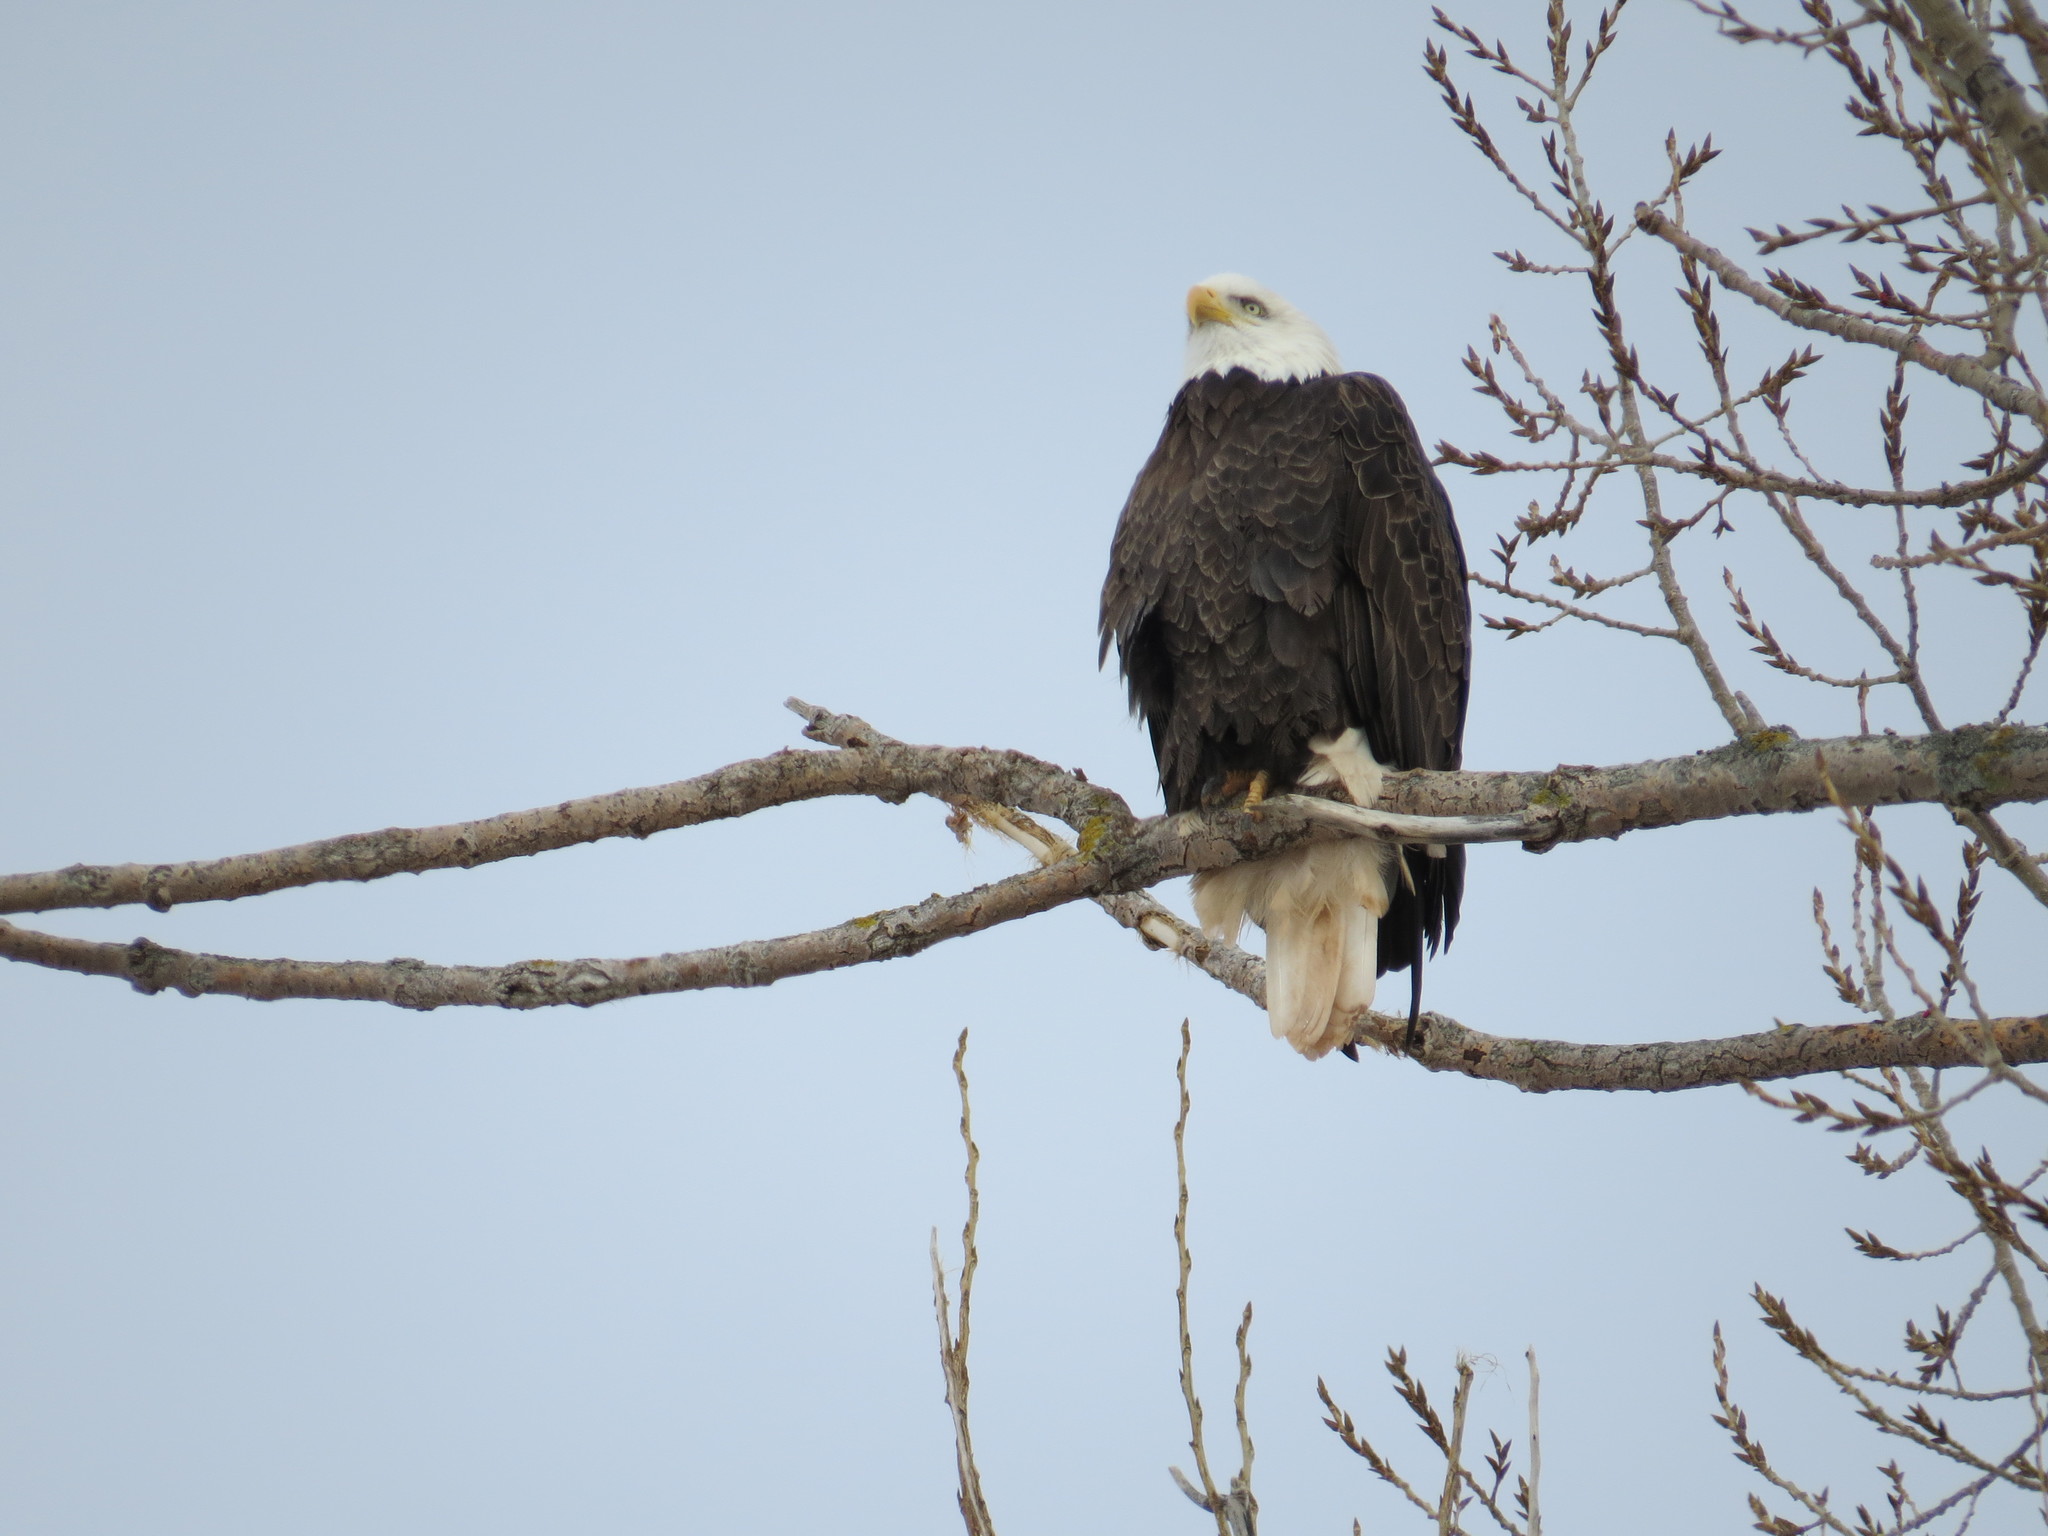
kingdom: Animalia
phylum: Chordata
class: Aves
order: Accipitriformes
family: Accipitridae
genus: Haliaeetus
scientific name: Haliaeetus leucocephalus
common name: Bald eagle
